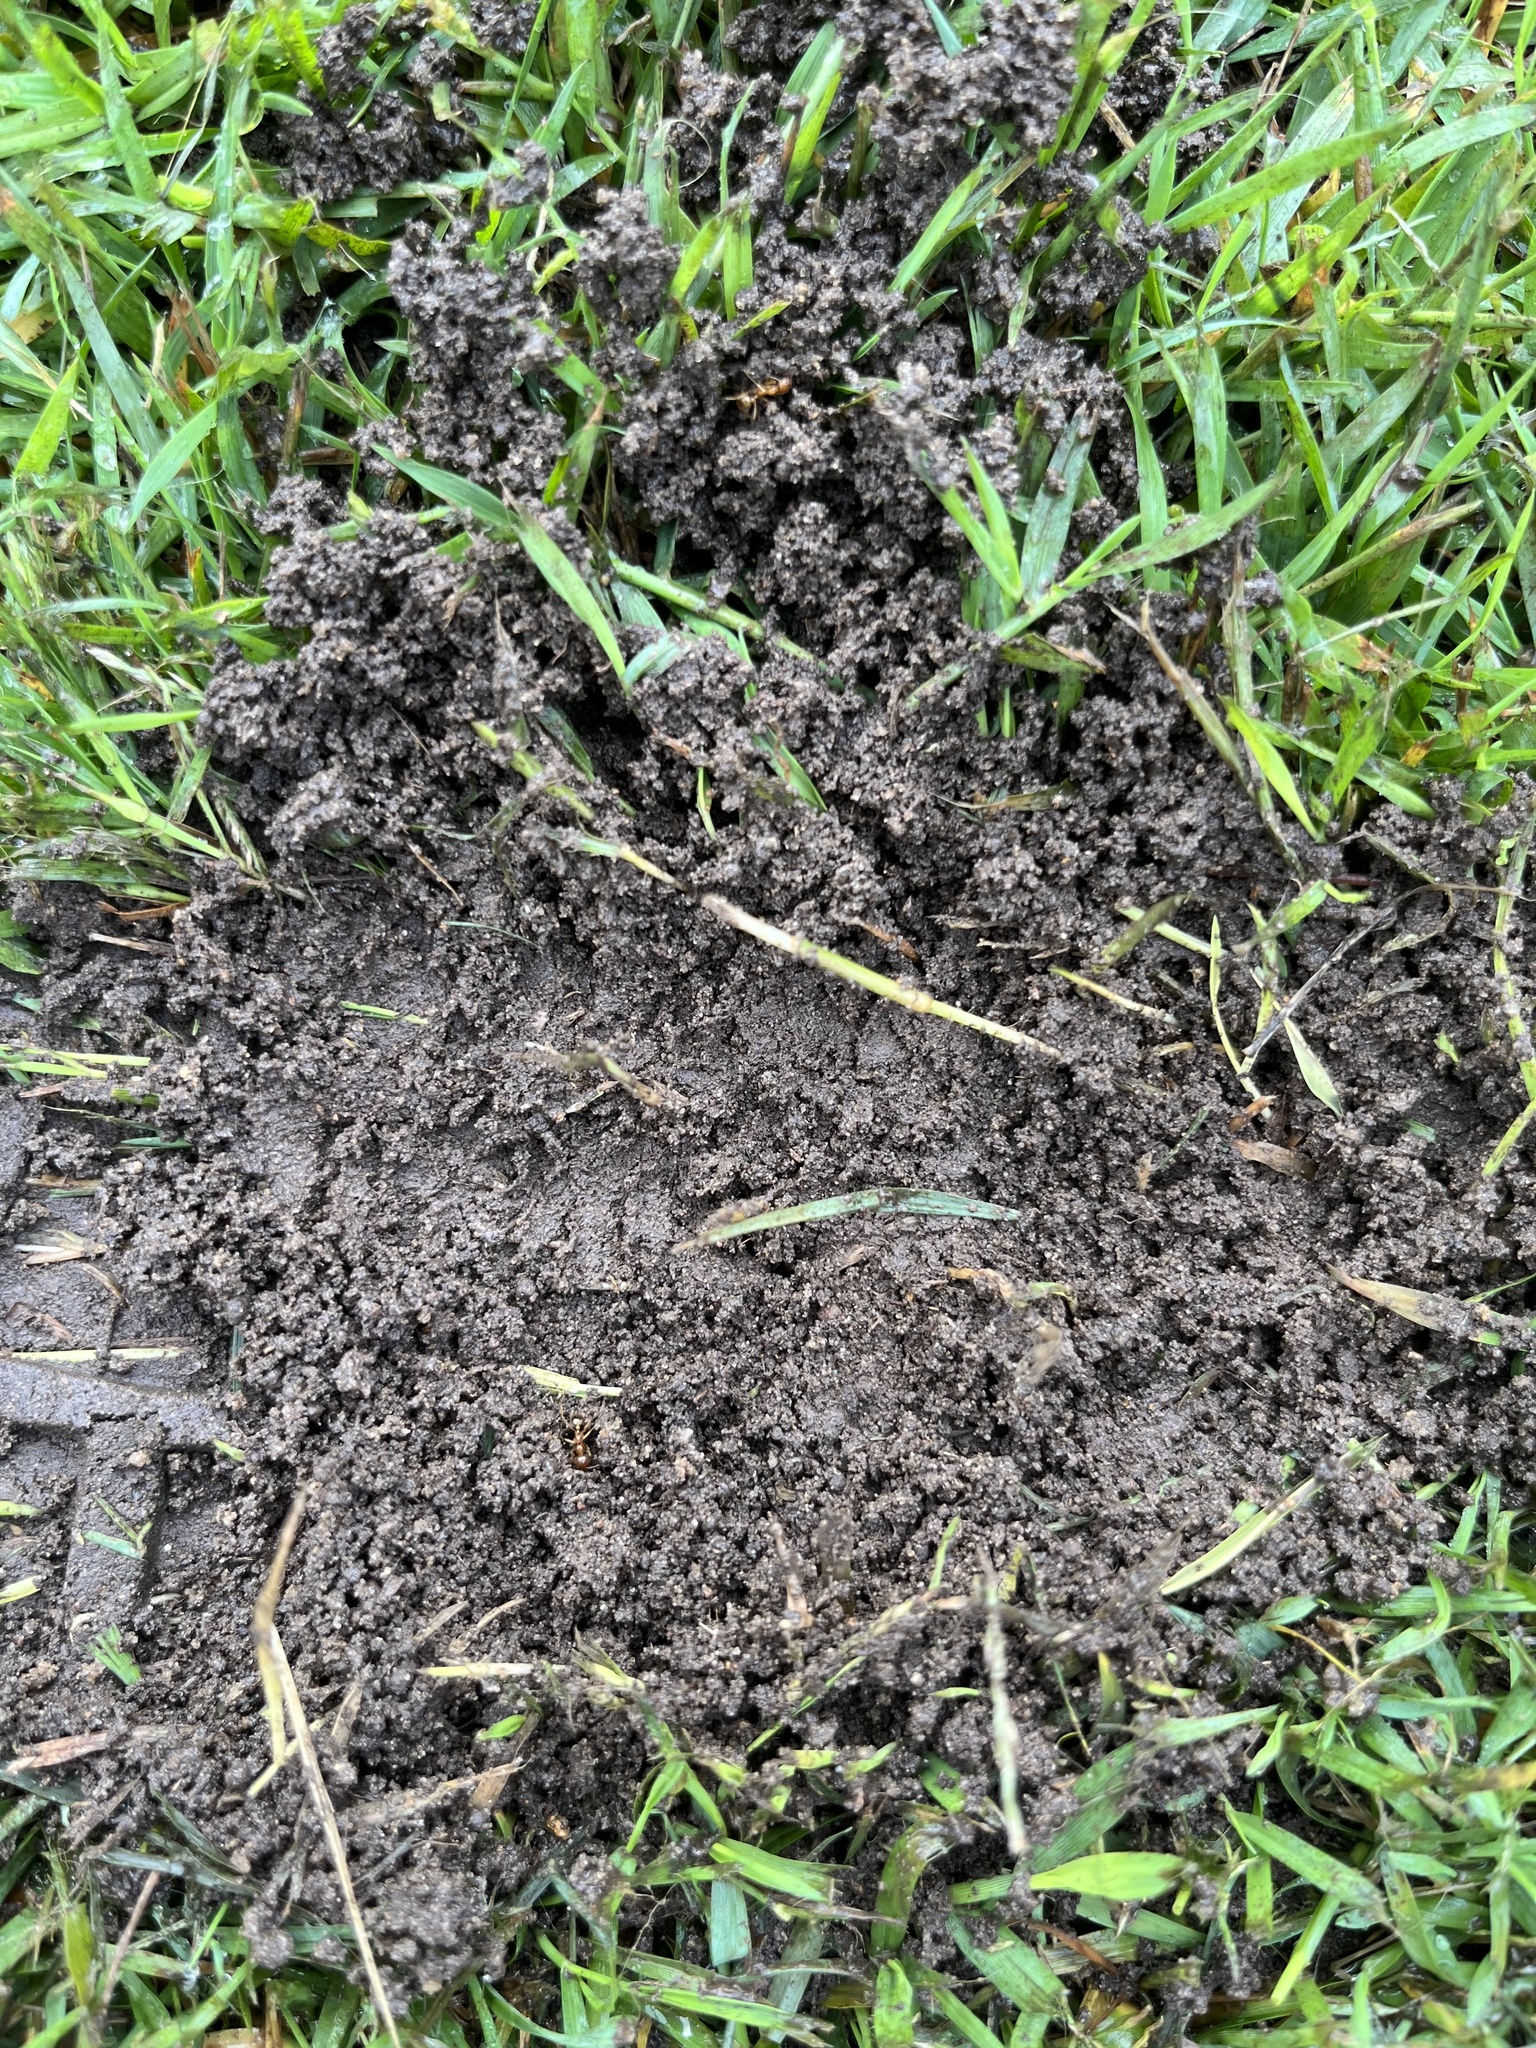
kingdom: Animalia
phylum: Arthropoda
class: Insecta
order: Hymenoptera
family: Formicidae
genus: Aphaenogaster
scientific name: Aphaenogaster longiceps
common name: Funnel ant
